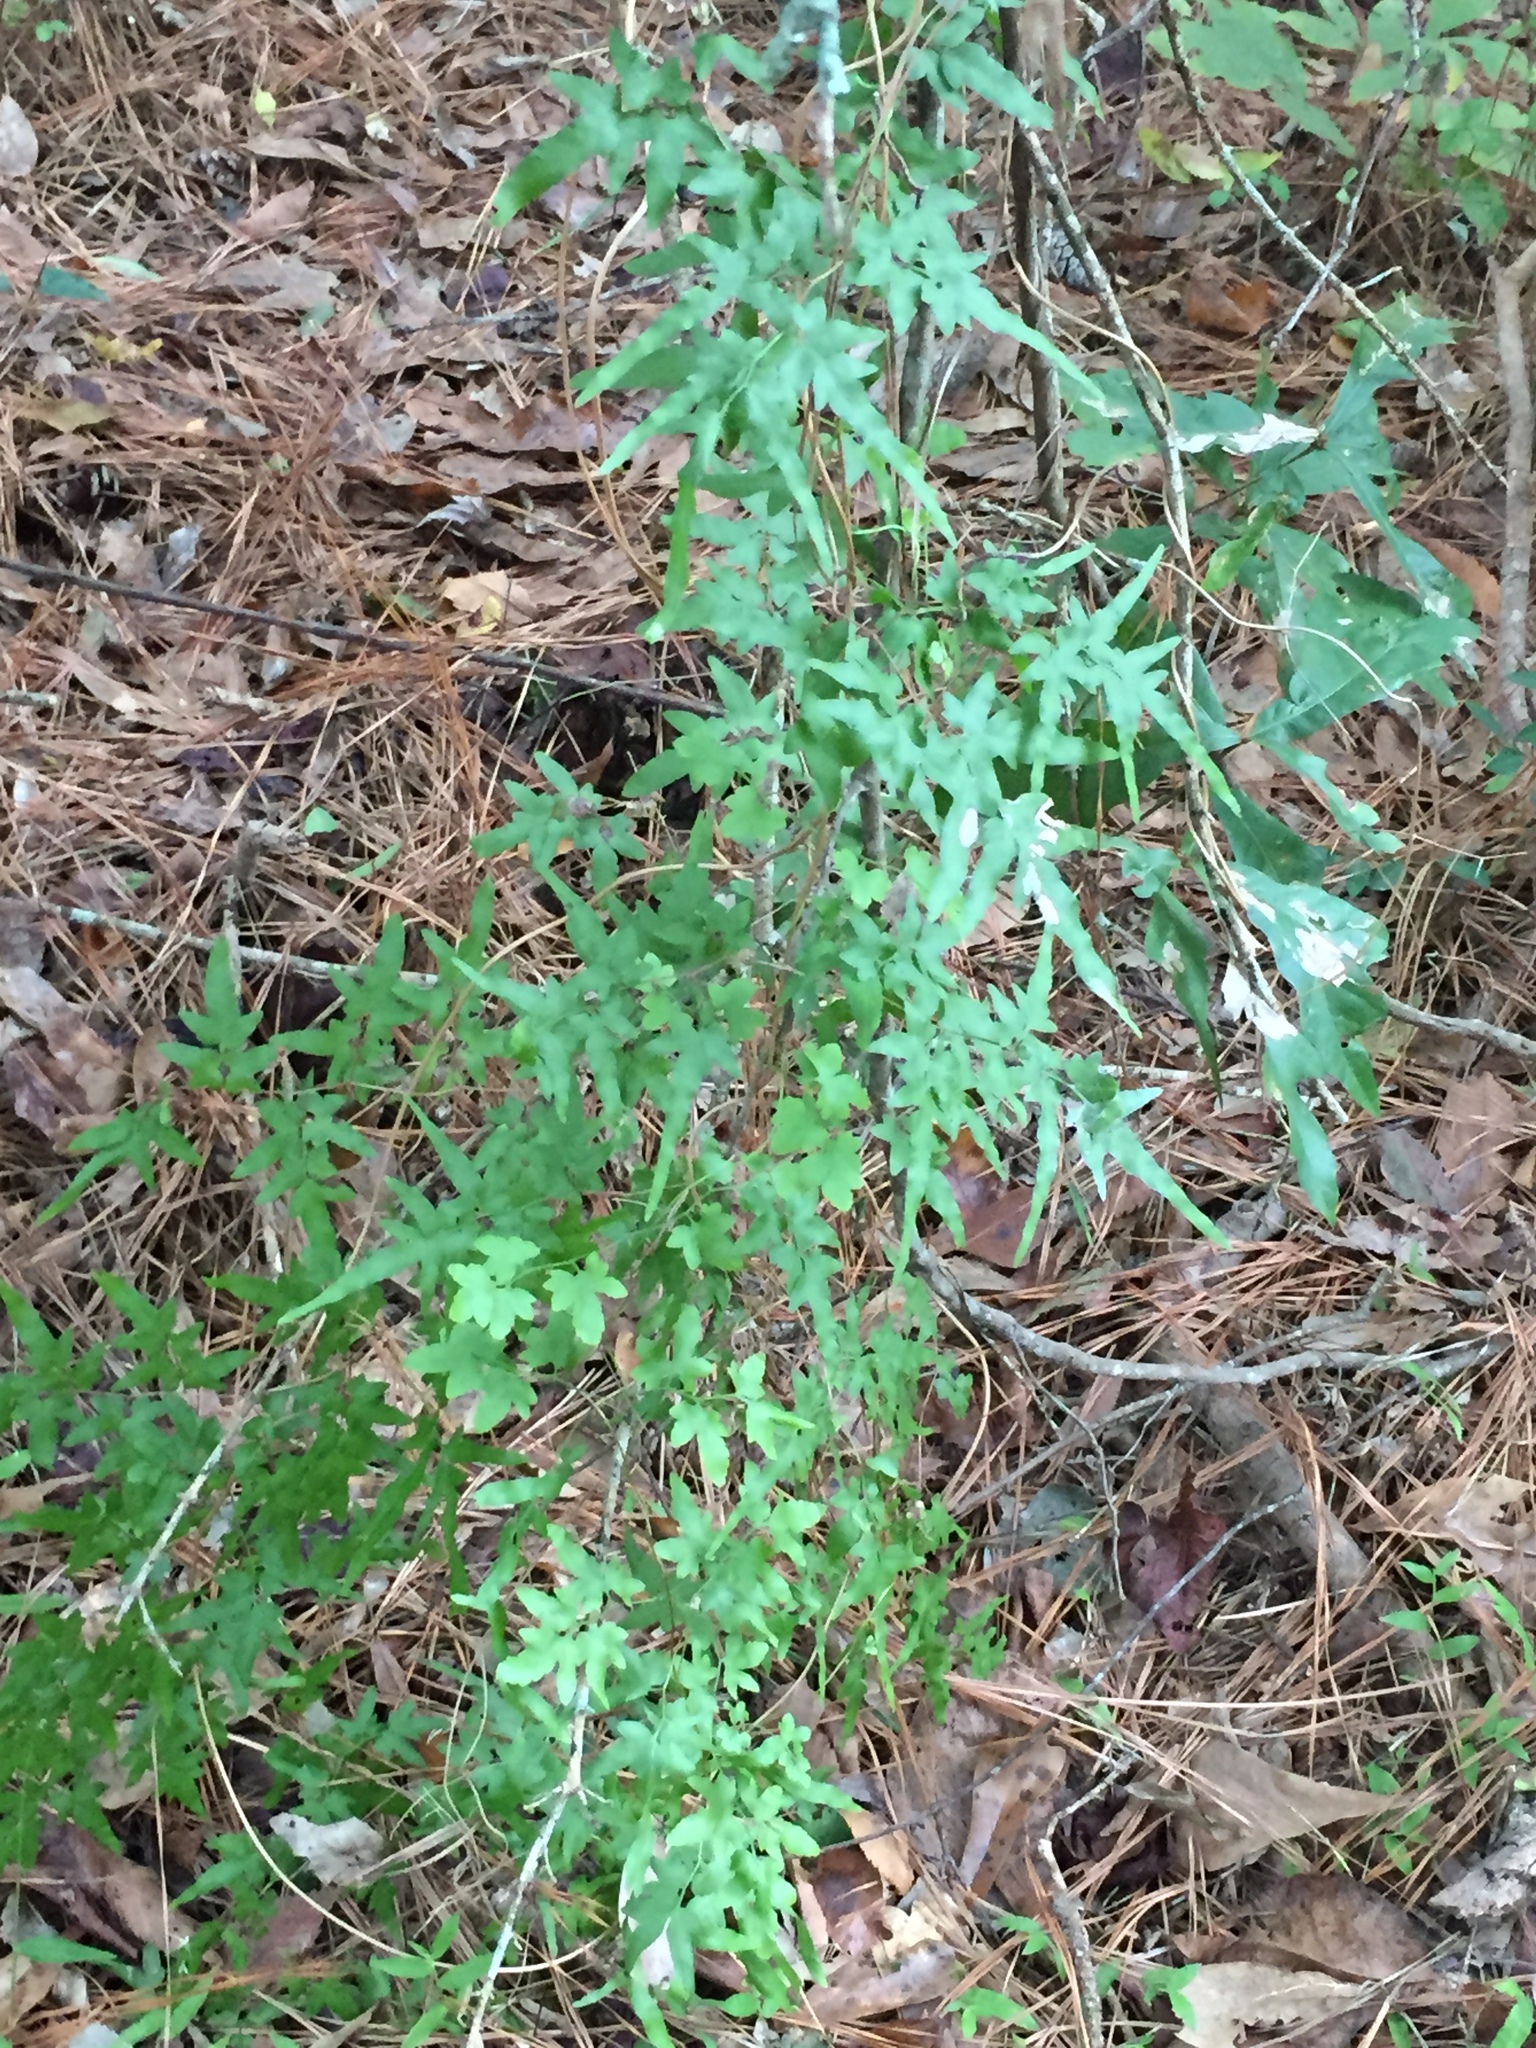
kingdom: Plantae
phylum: Tracheophyta
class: Polypodiopsida
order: Schizaeales
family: Lygodiaceae
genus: Lygodium
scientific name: Lygodium japonicum
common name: Japanese climbing fern
